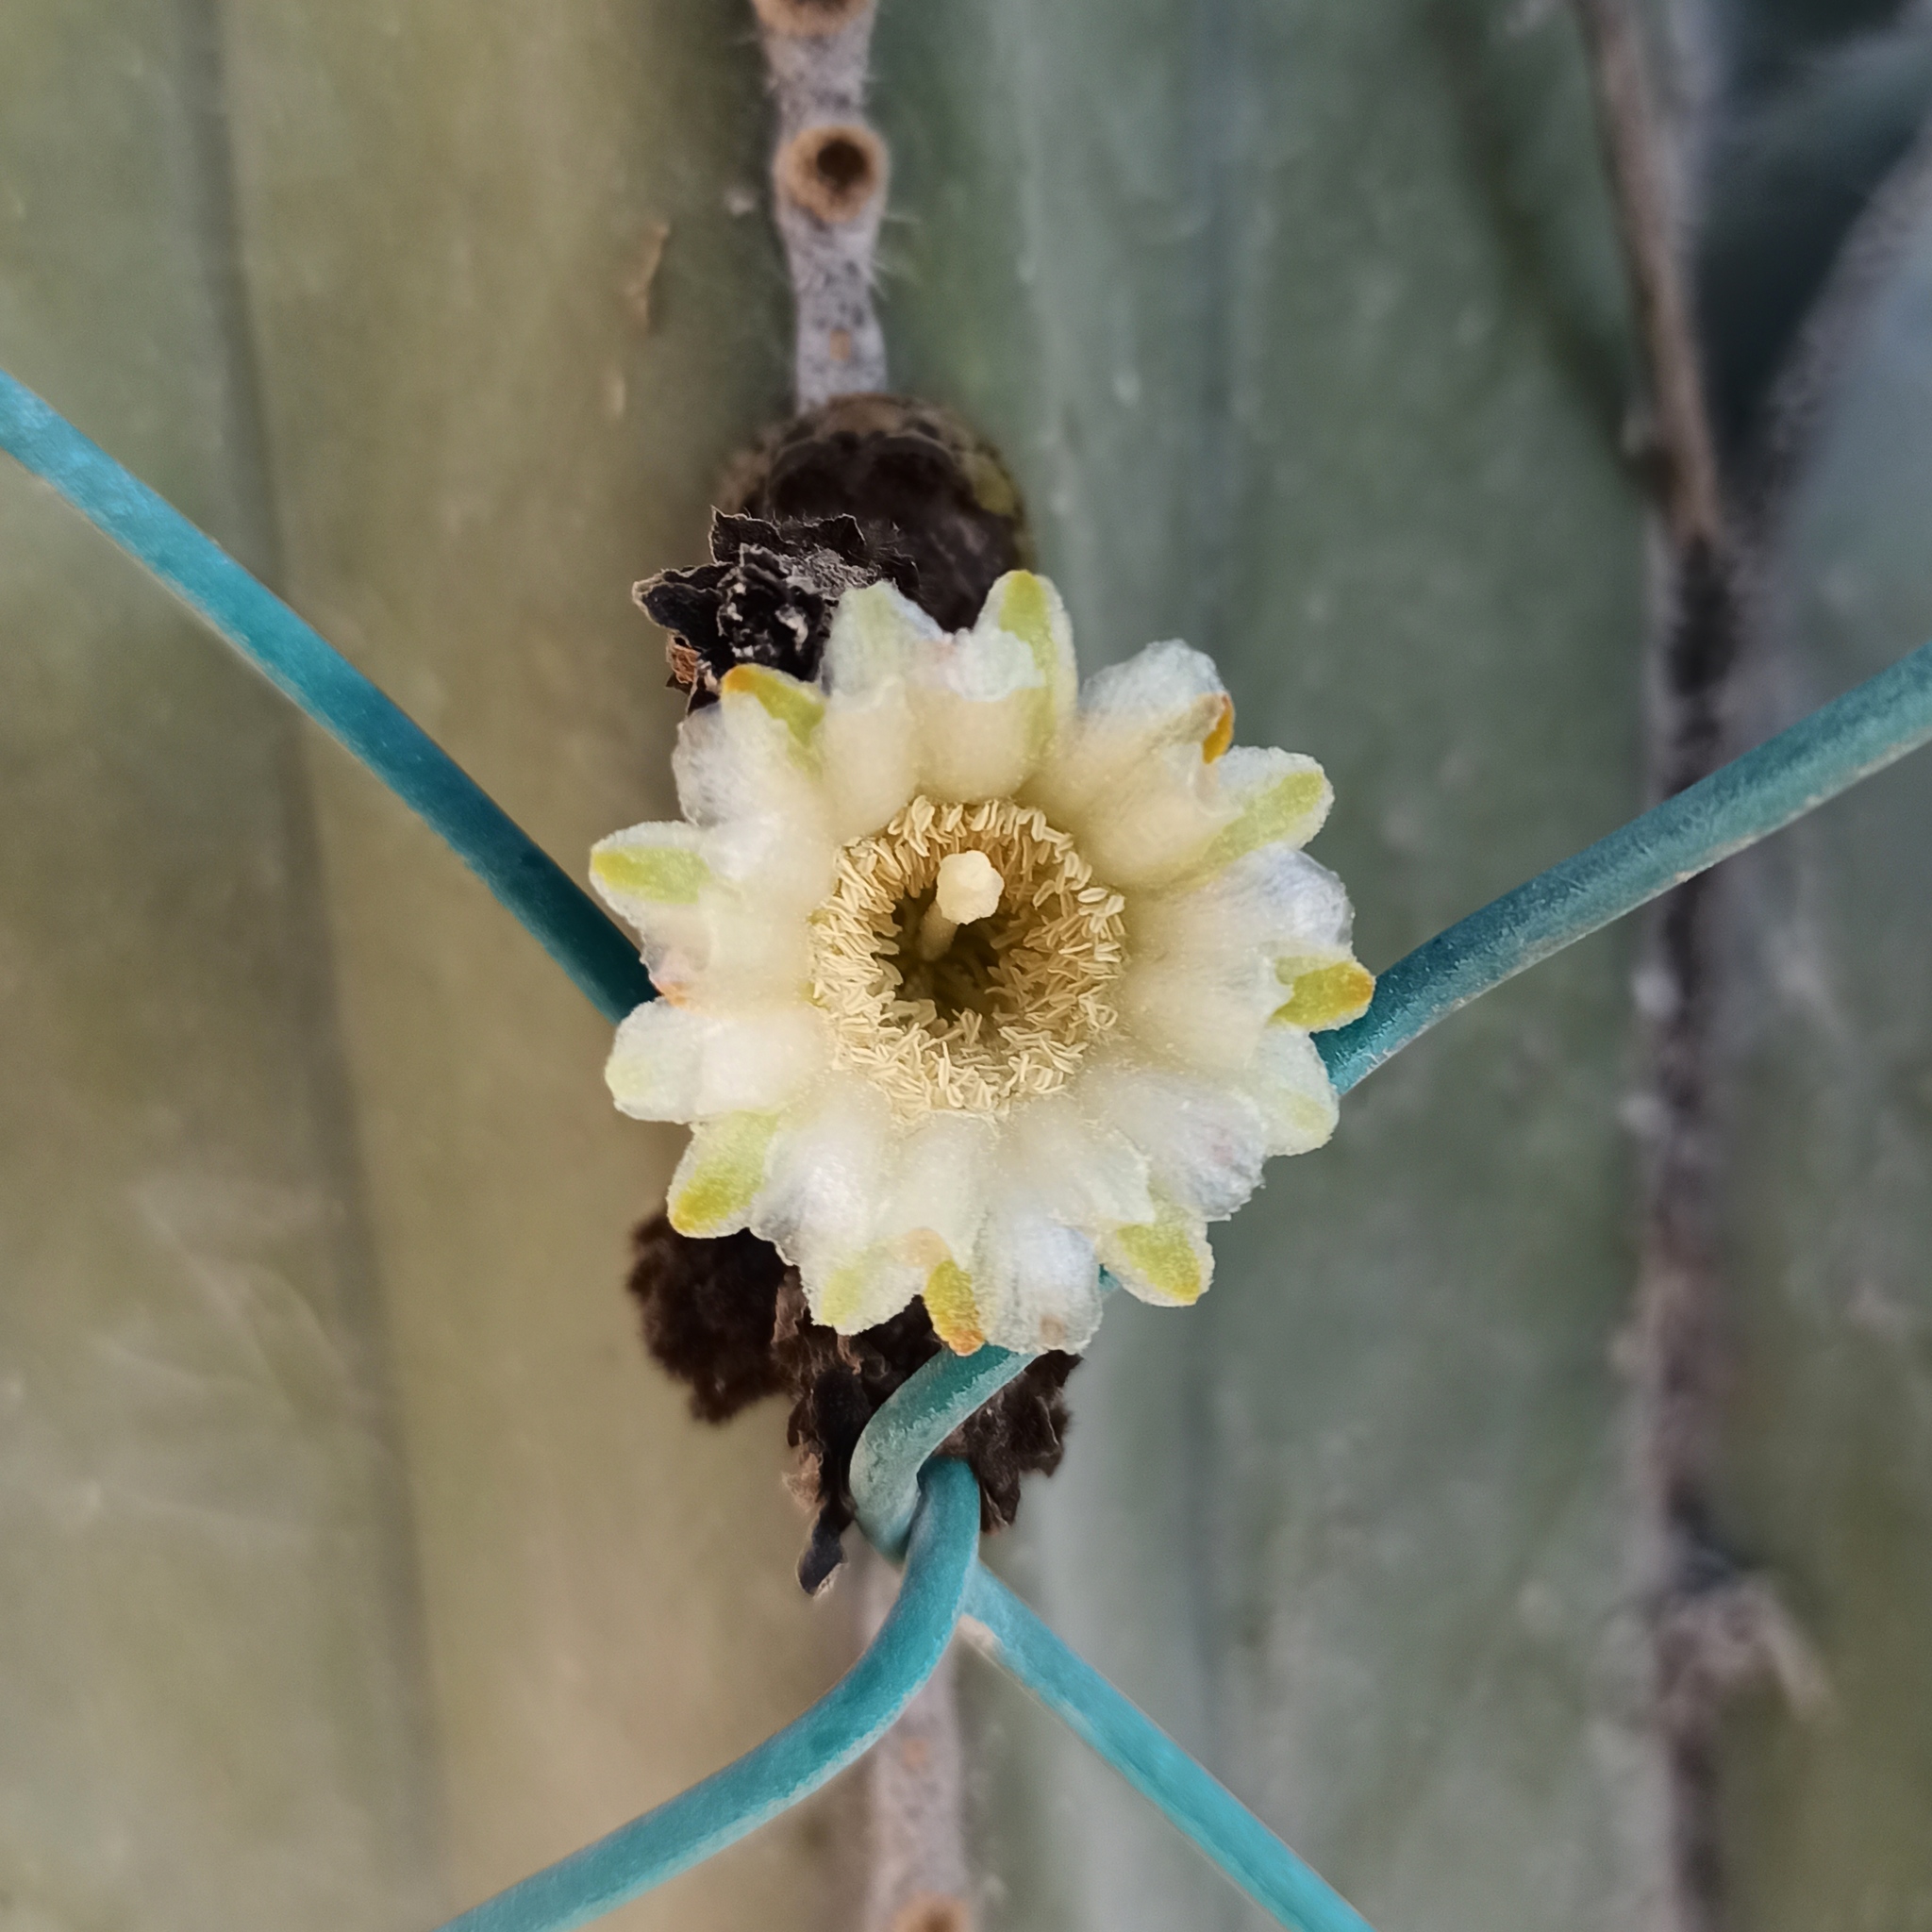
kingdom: Plantae
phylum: Tracheophyta
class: Magnoliopsida
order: Caryophyllales
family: Cactaceae
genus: Marginatocereus
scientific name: Marginatocereus marginatus
